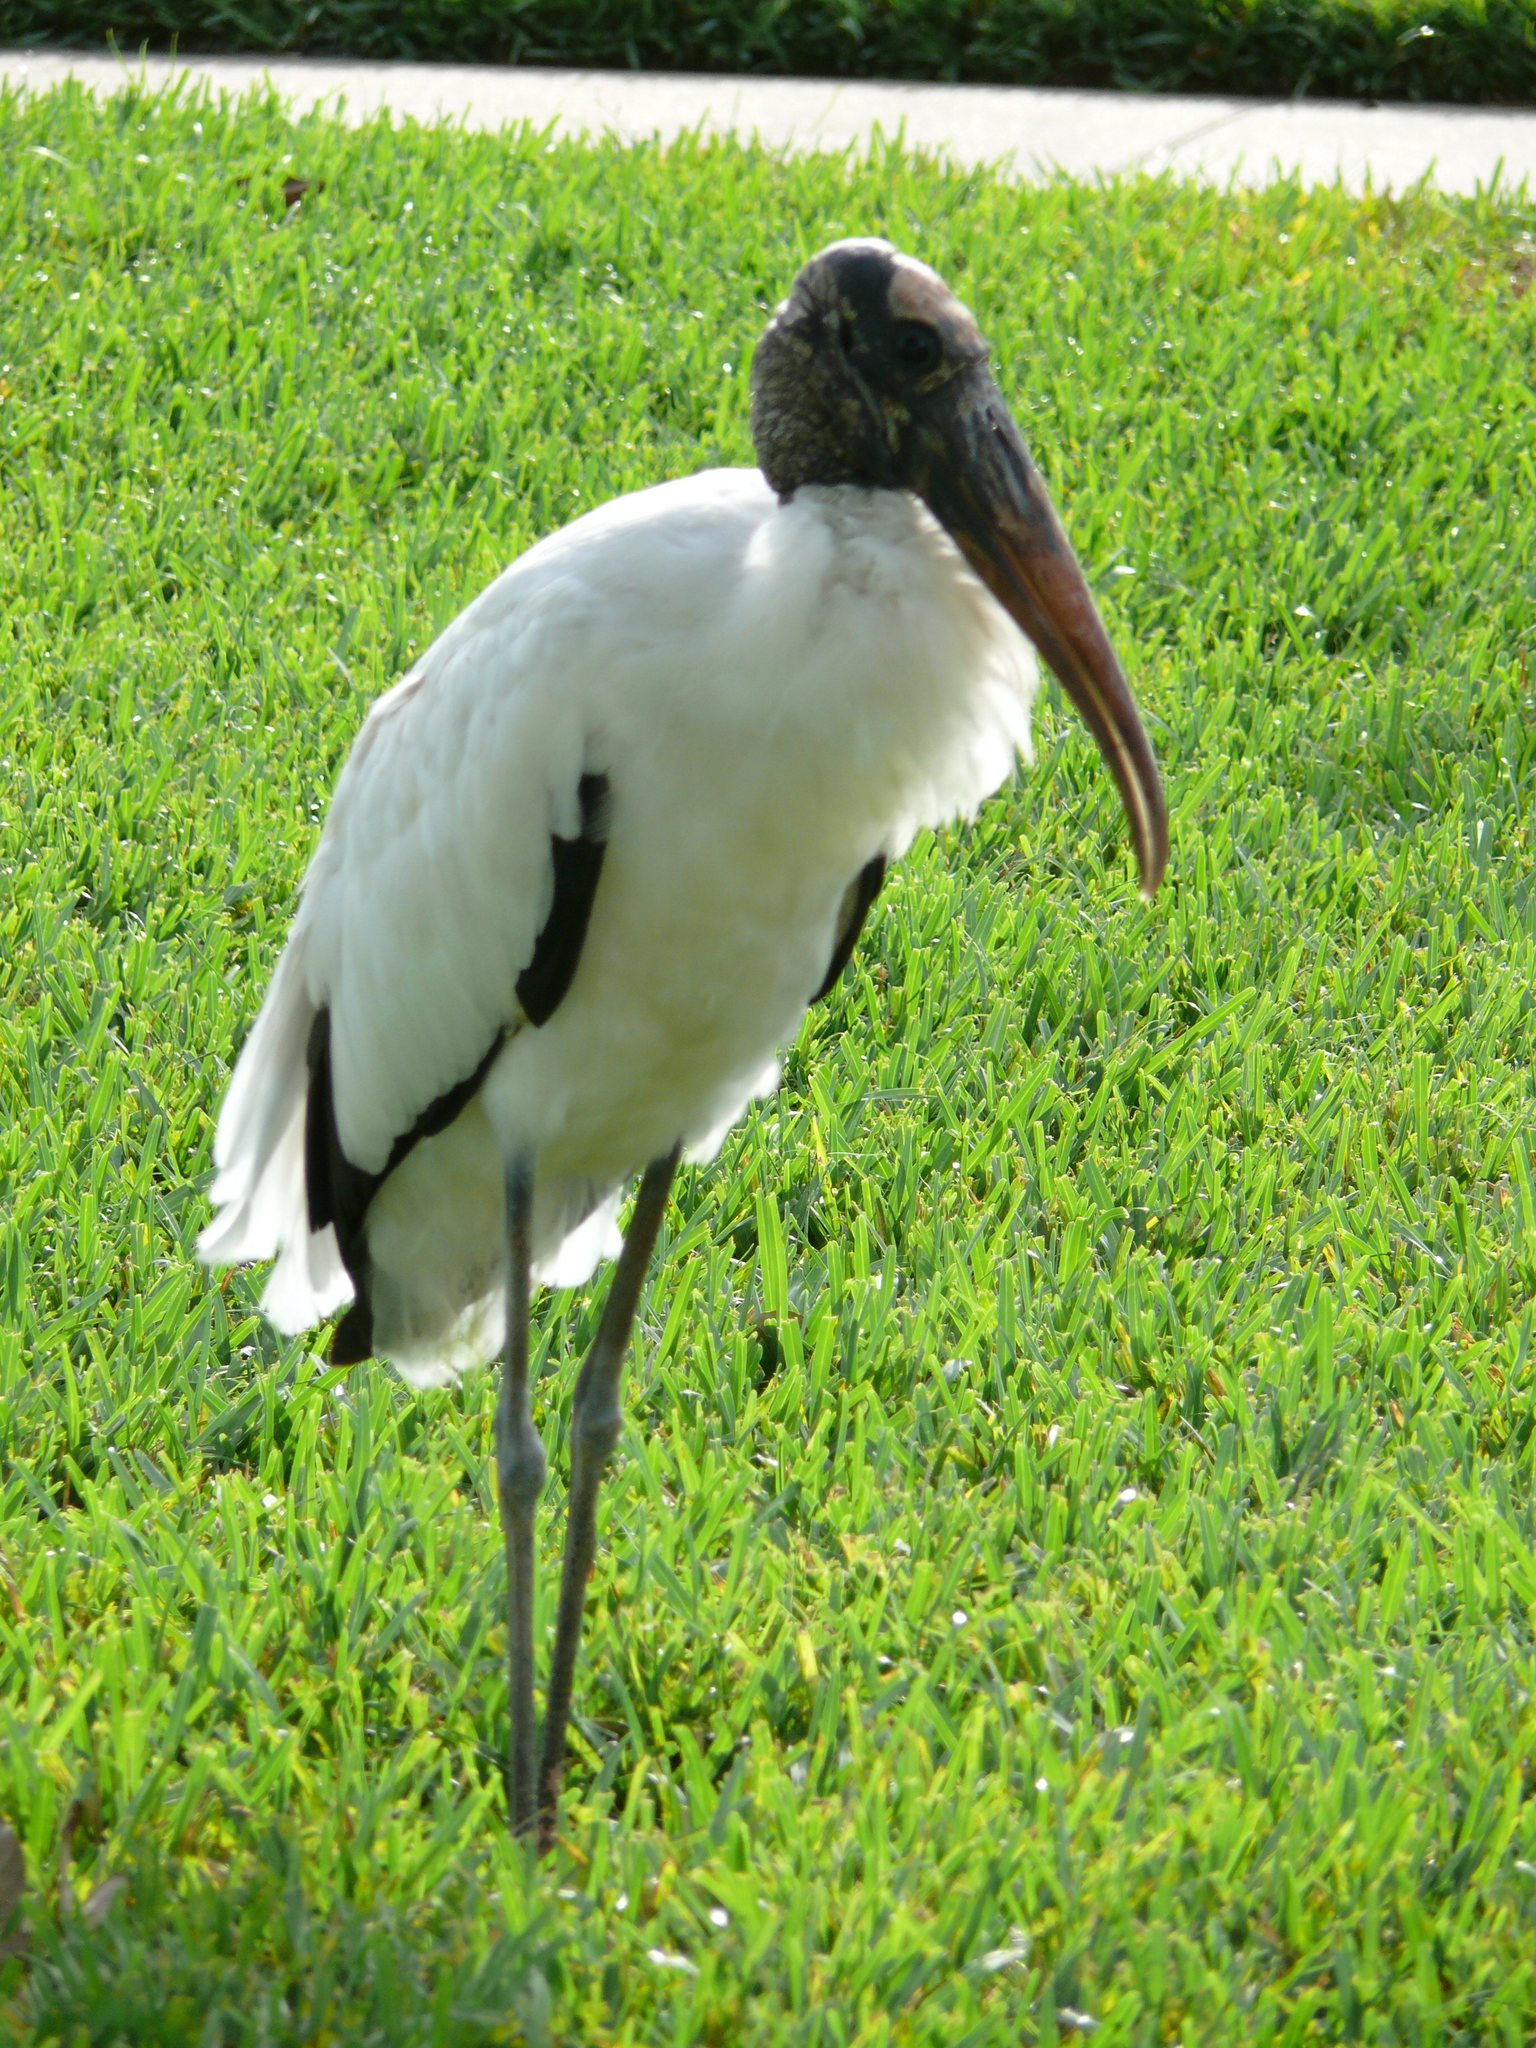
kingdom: Animalia
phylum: Chordata
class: Aves
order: Ciconiiformes
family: Ciconiidae
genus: Mycteria
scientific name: Mycteria americana
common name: Wood stork
